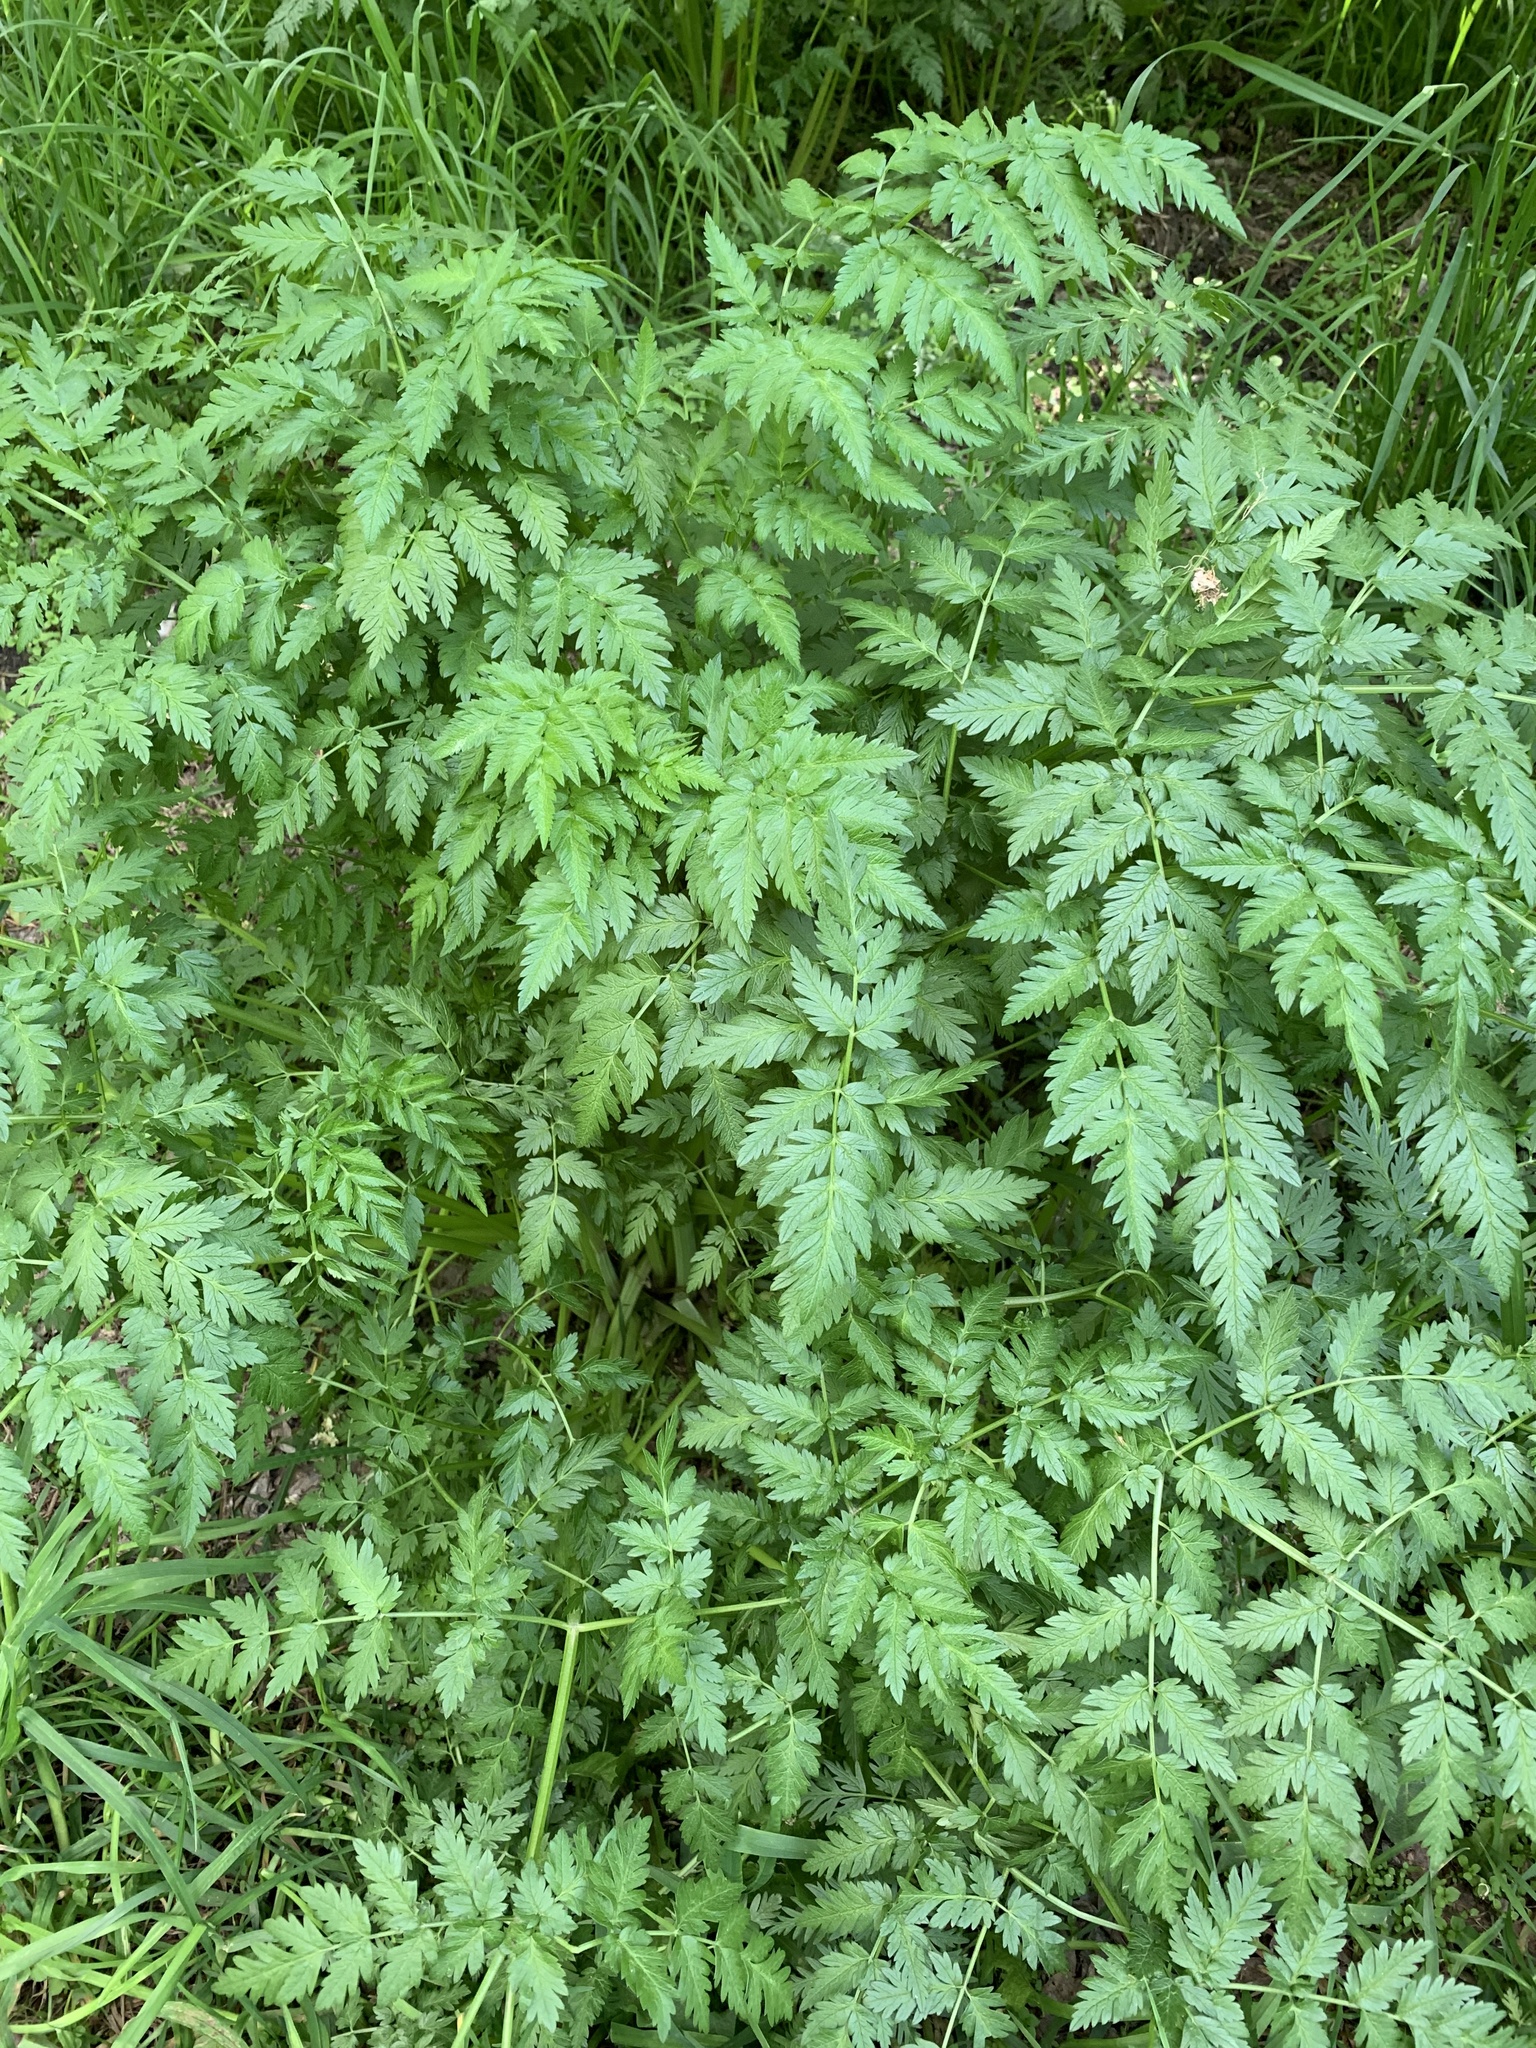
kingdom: Plantae
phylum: Tracheophyta
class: Magnoliopsida
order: Apiales
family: Apiaceae
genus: Anthriscus
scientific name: Anthriscus sylvestris
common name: Cow parsley
